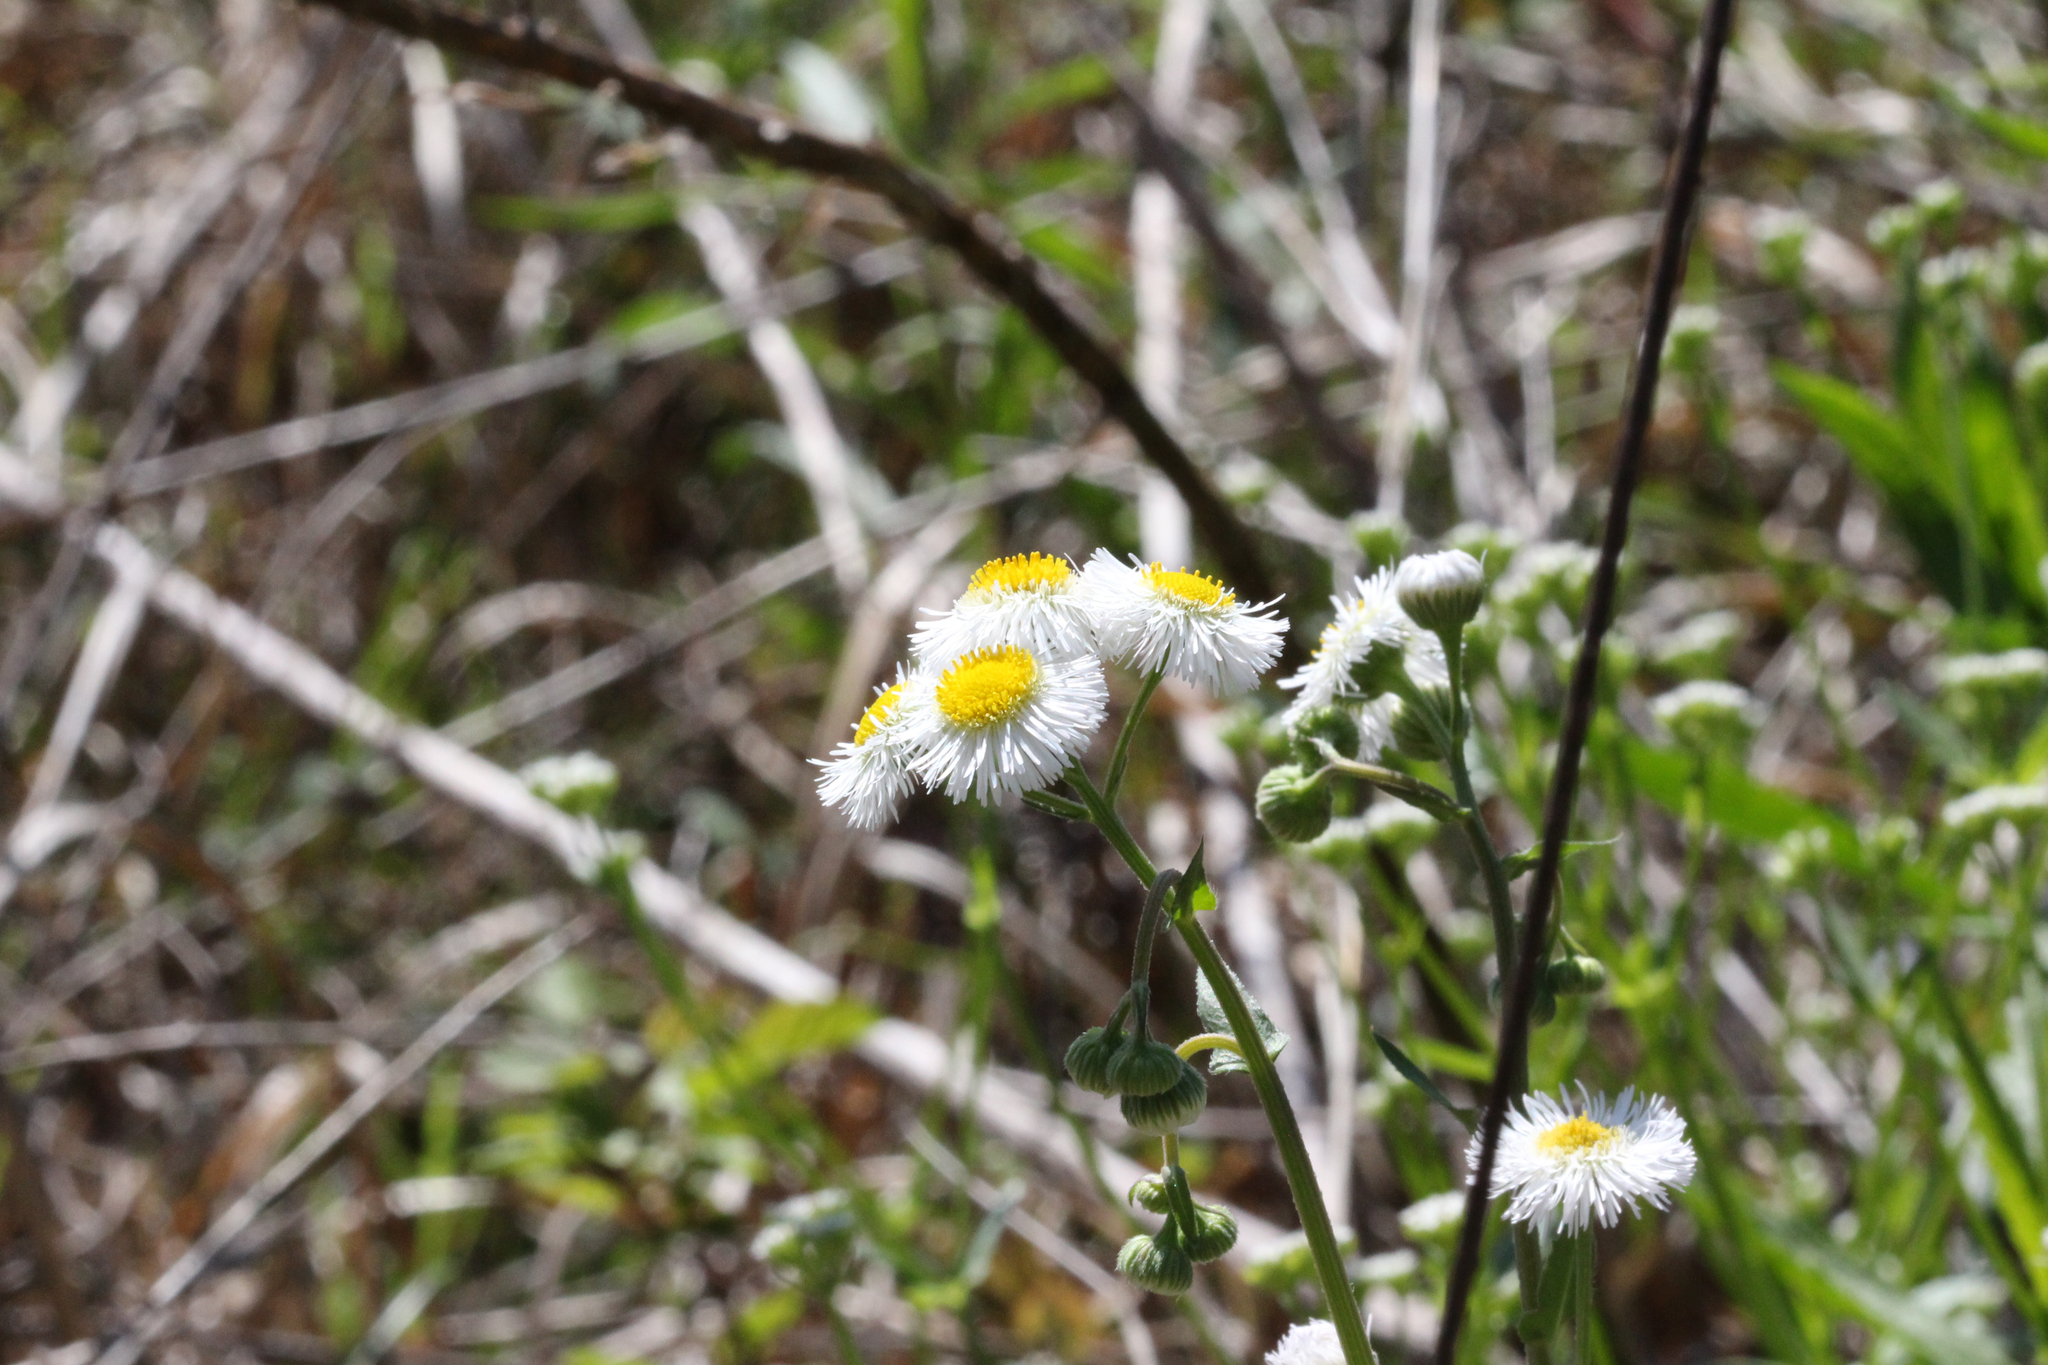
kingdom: Plantae
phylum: Tracheophyta
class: Magnoliopsida
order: Asterales
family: Asteraceae
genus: Erigeron
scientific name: Erigeron philadelphicus
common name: Robin's-plantain
